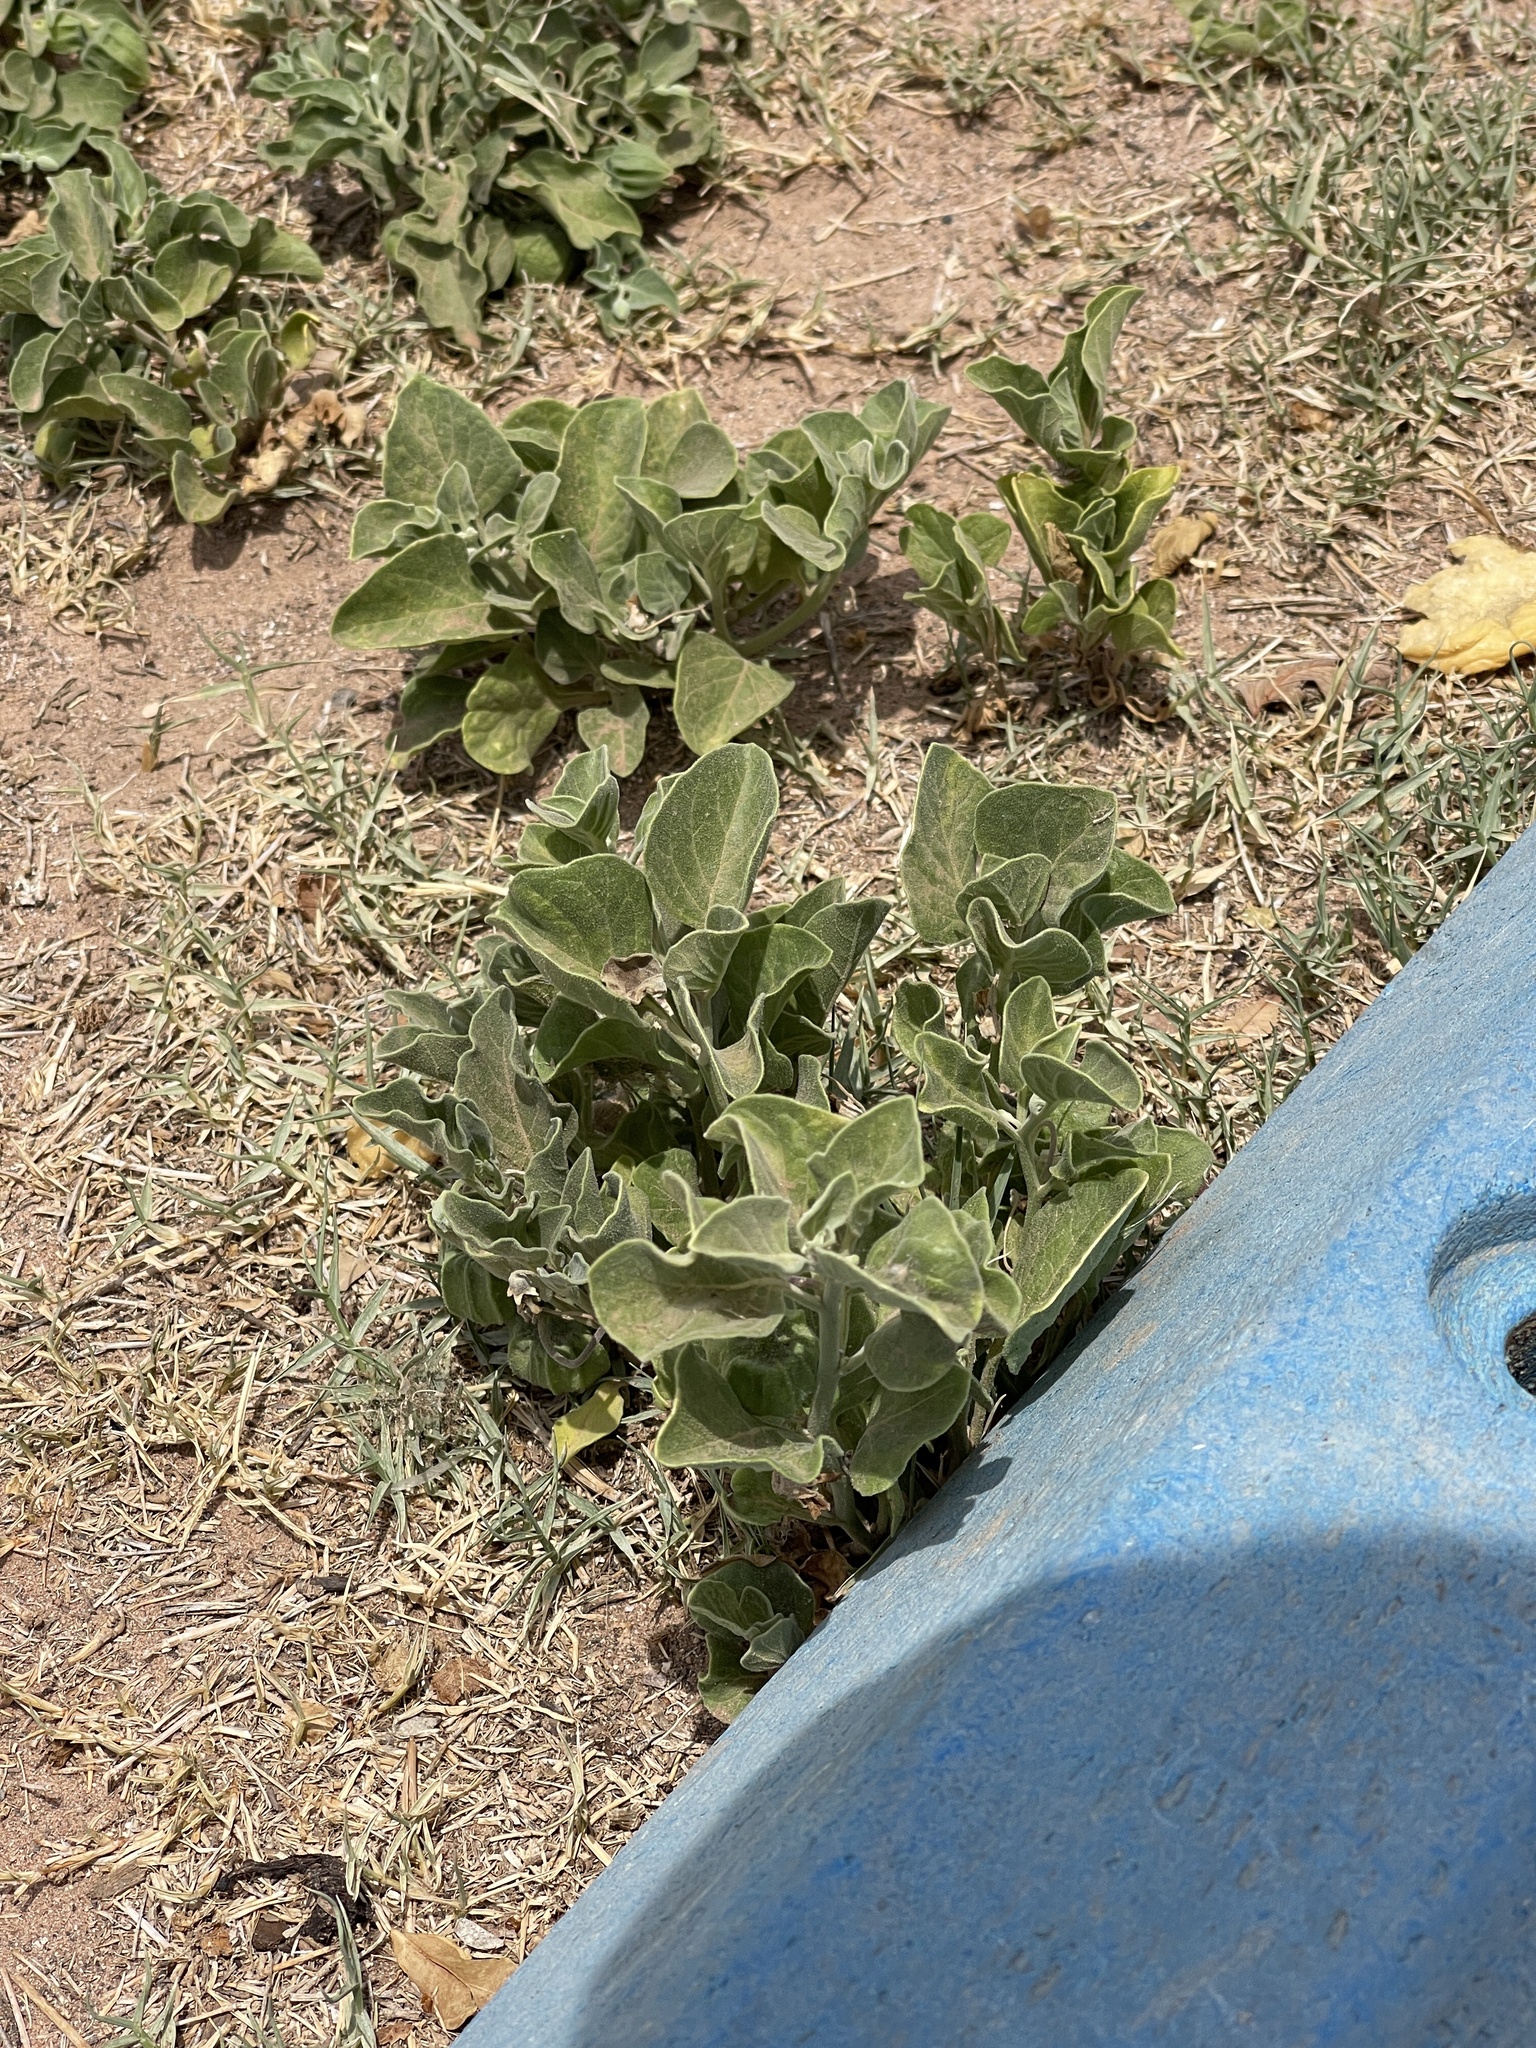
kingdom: Plantae
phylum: Tracheophyta
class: Magnoliopsida
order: Solanales
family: Solanaceae
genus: Physalis
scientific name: Physalis cinerascens
